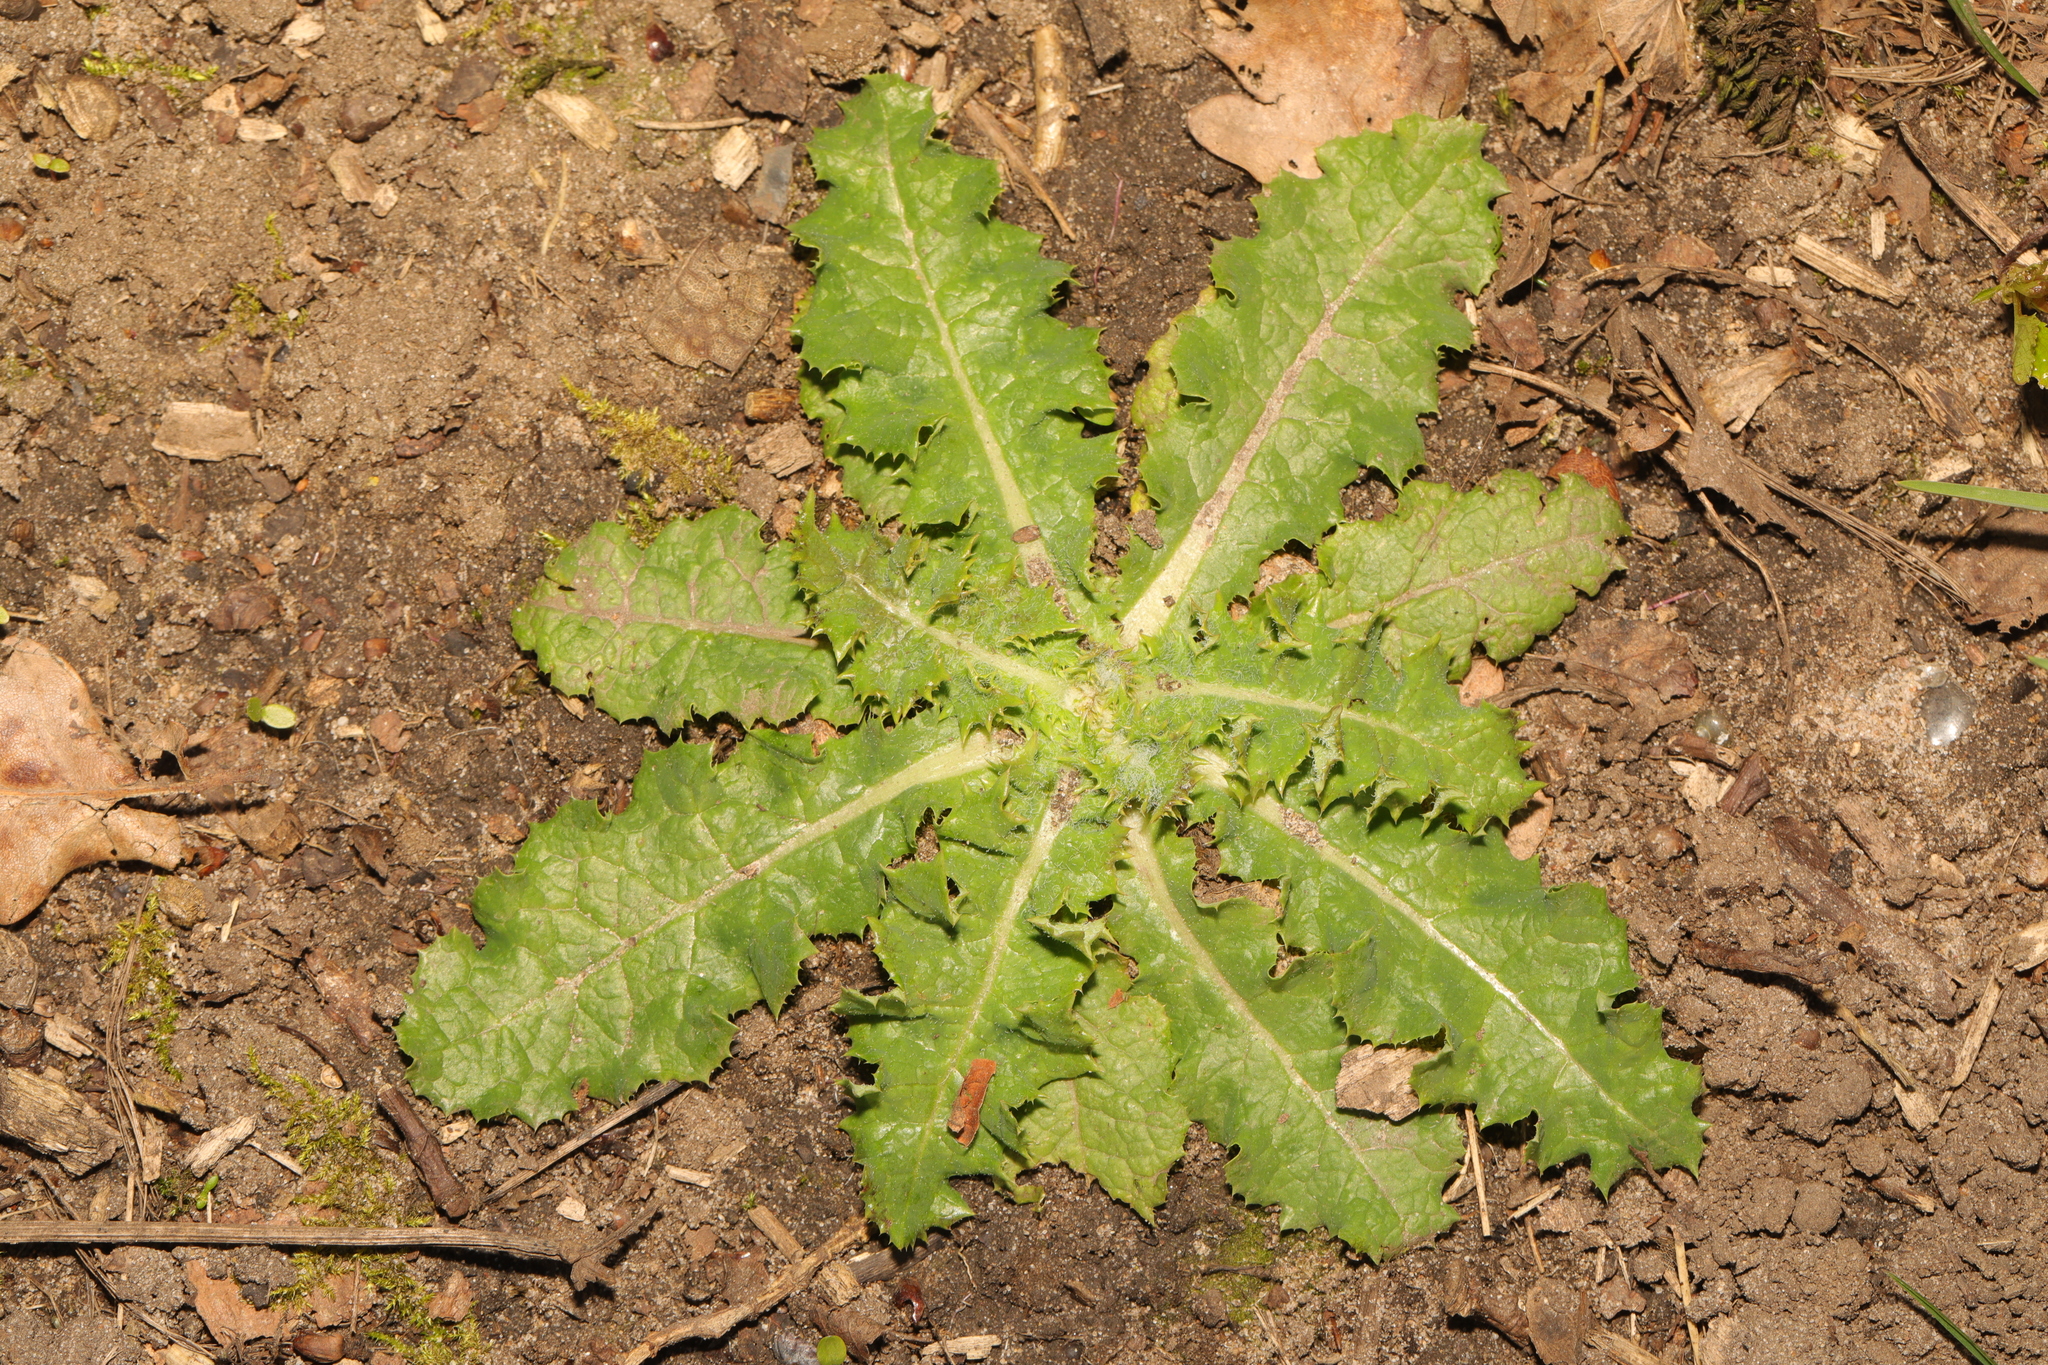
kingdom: Plantae
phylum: Tracheophyta
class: Magnoliopsida
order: Asterales
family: Asteraceae
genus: Sonchus
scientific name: Sonchus asper
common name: Prickly sow-thistle
